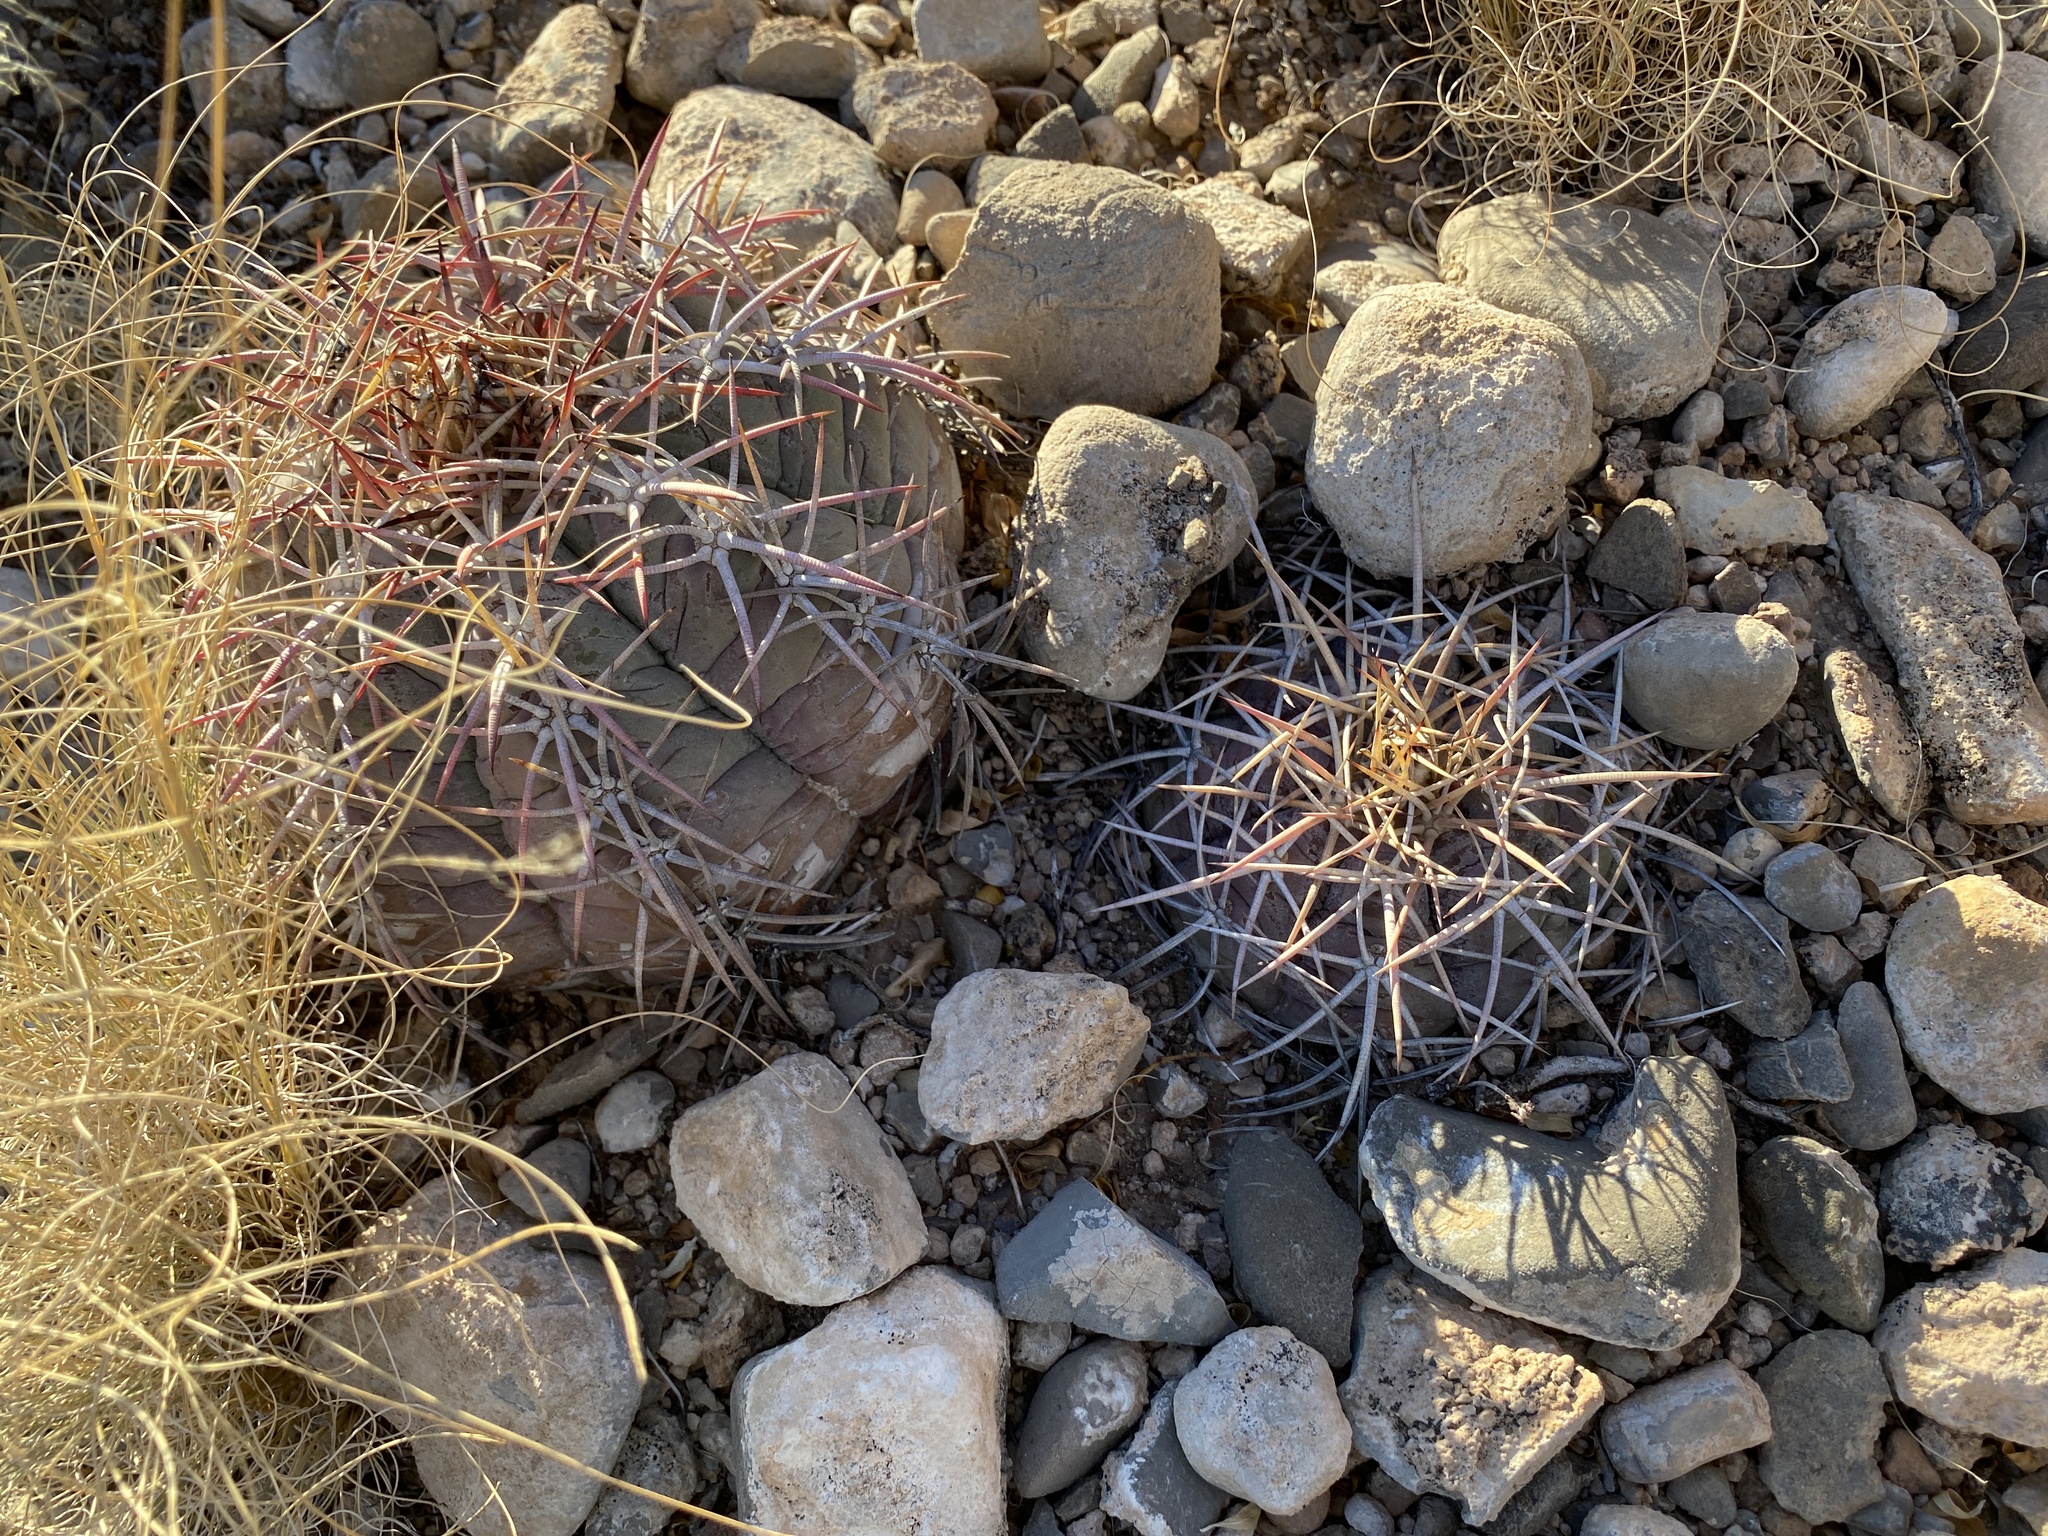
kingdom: Plantae
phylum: Tracheophyta
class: Magnoliopsida
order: Caryophyllales
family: Cactaceae
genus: Echinocactus
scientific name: Echinocactus horizonthalonius
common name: Devilshead
